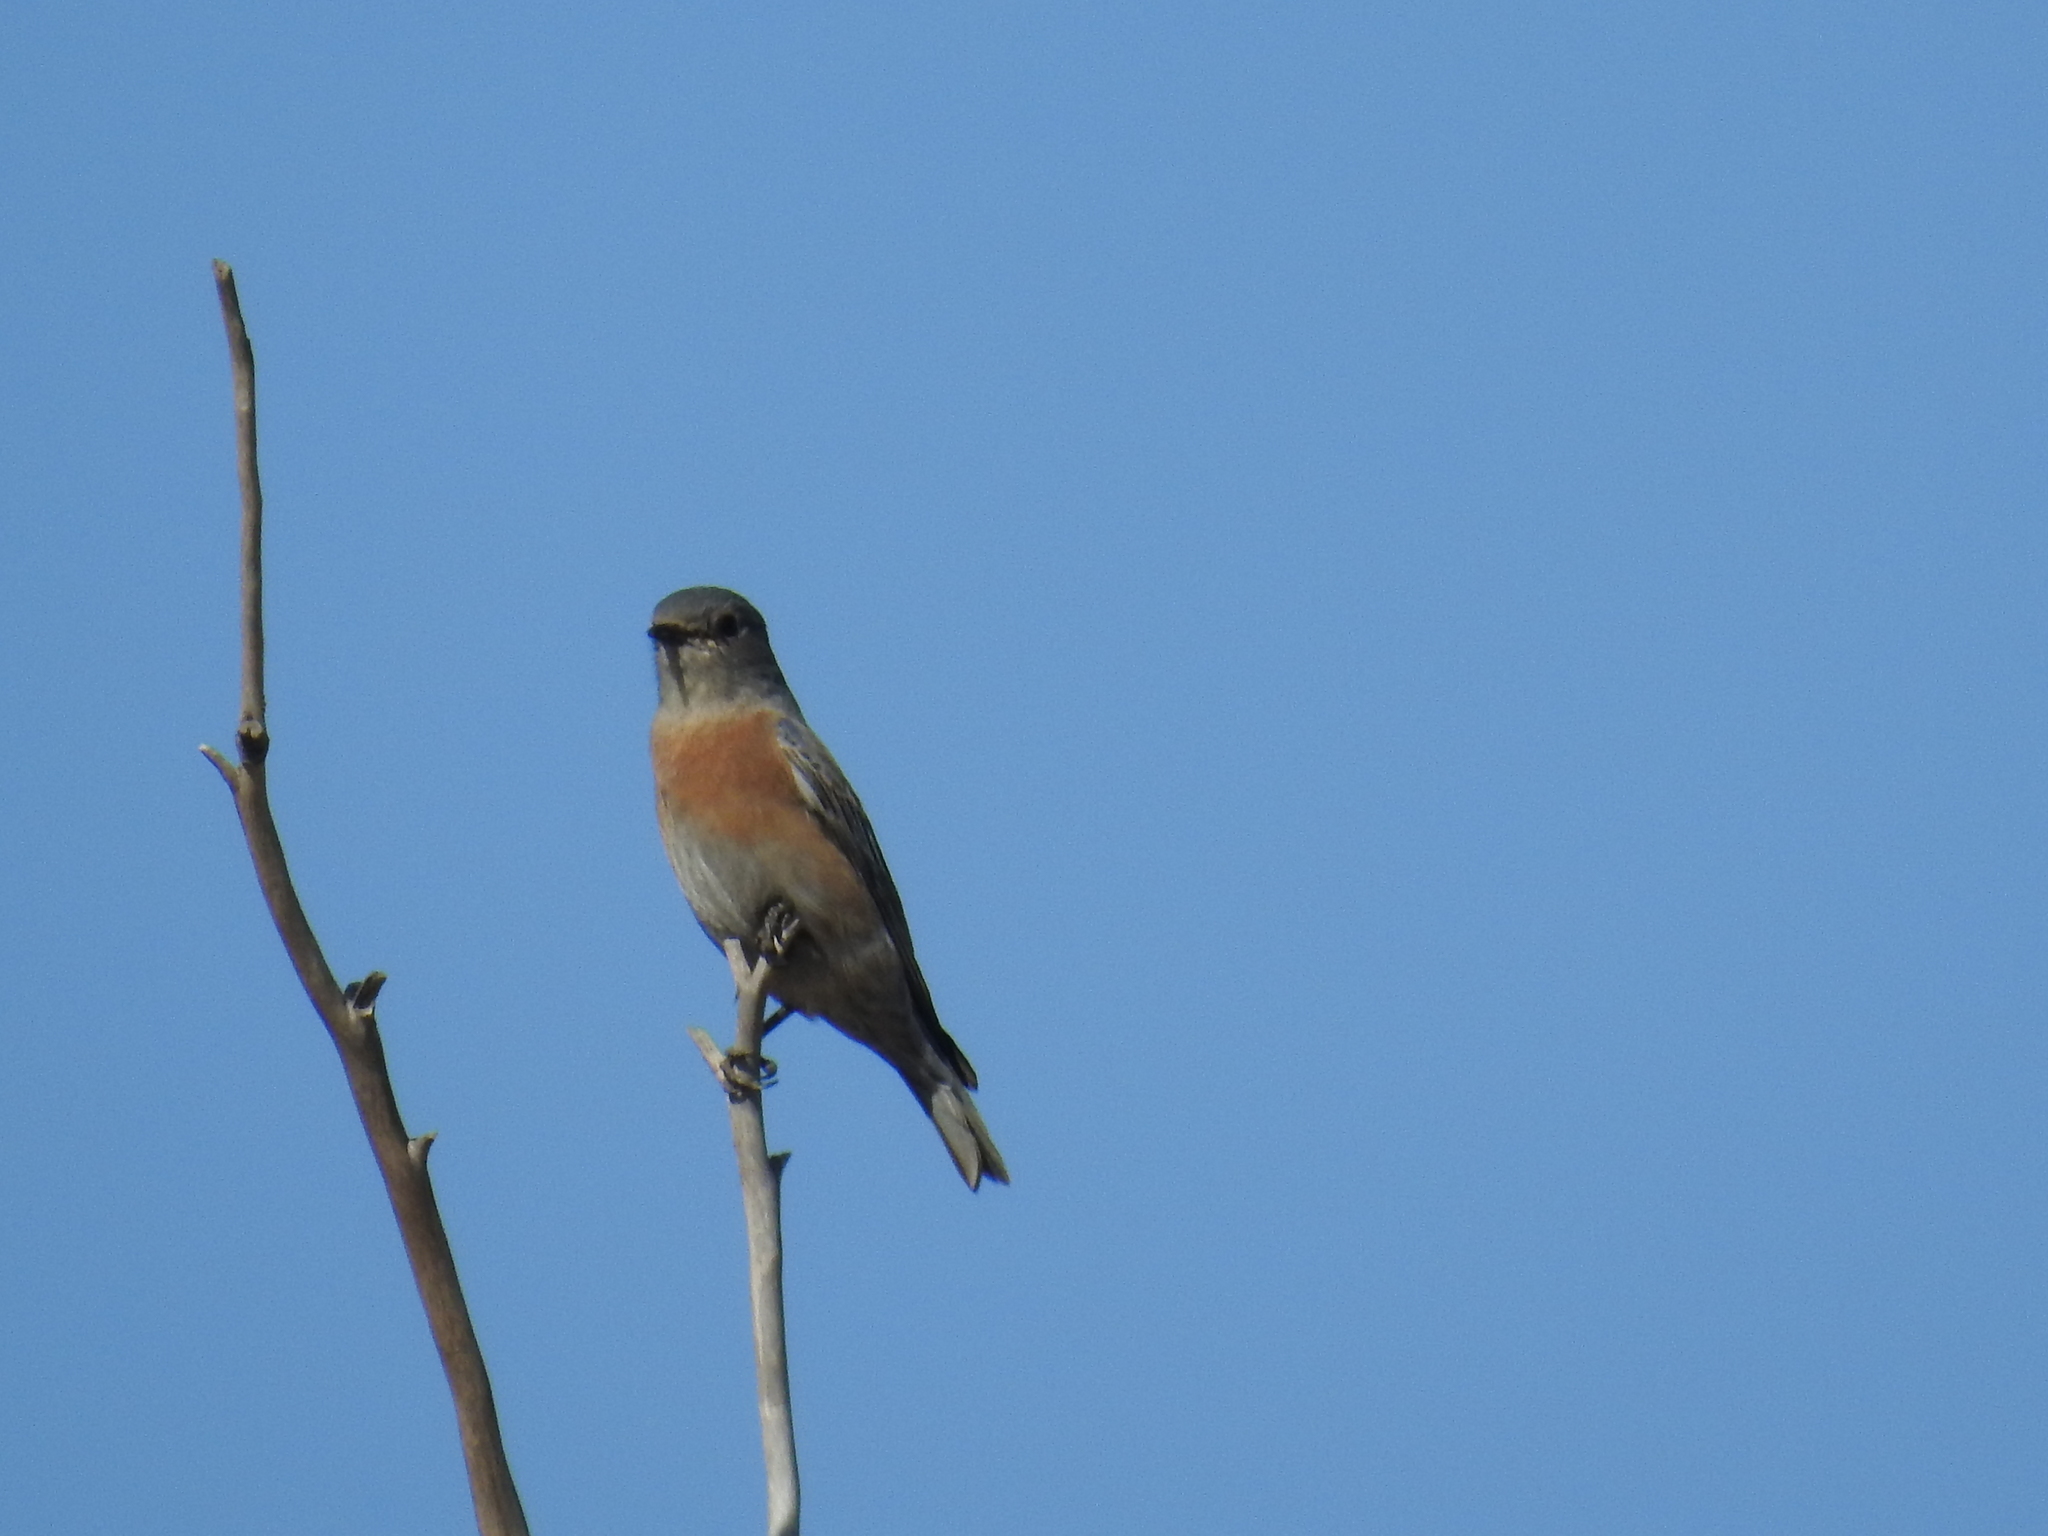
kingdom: Animalia
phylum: Chordata
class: Aves
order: Passeriformes
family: Turdidae
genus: Sialia
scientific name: Sialia mexicana
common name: Western bluebird
